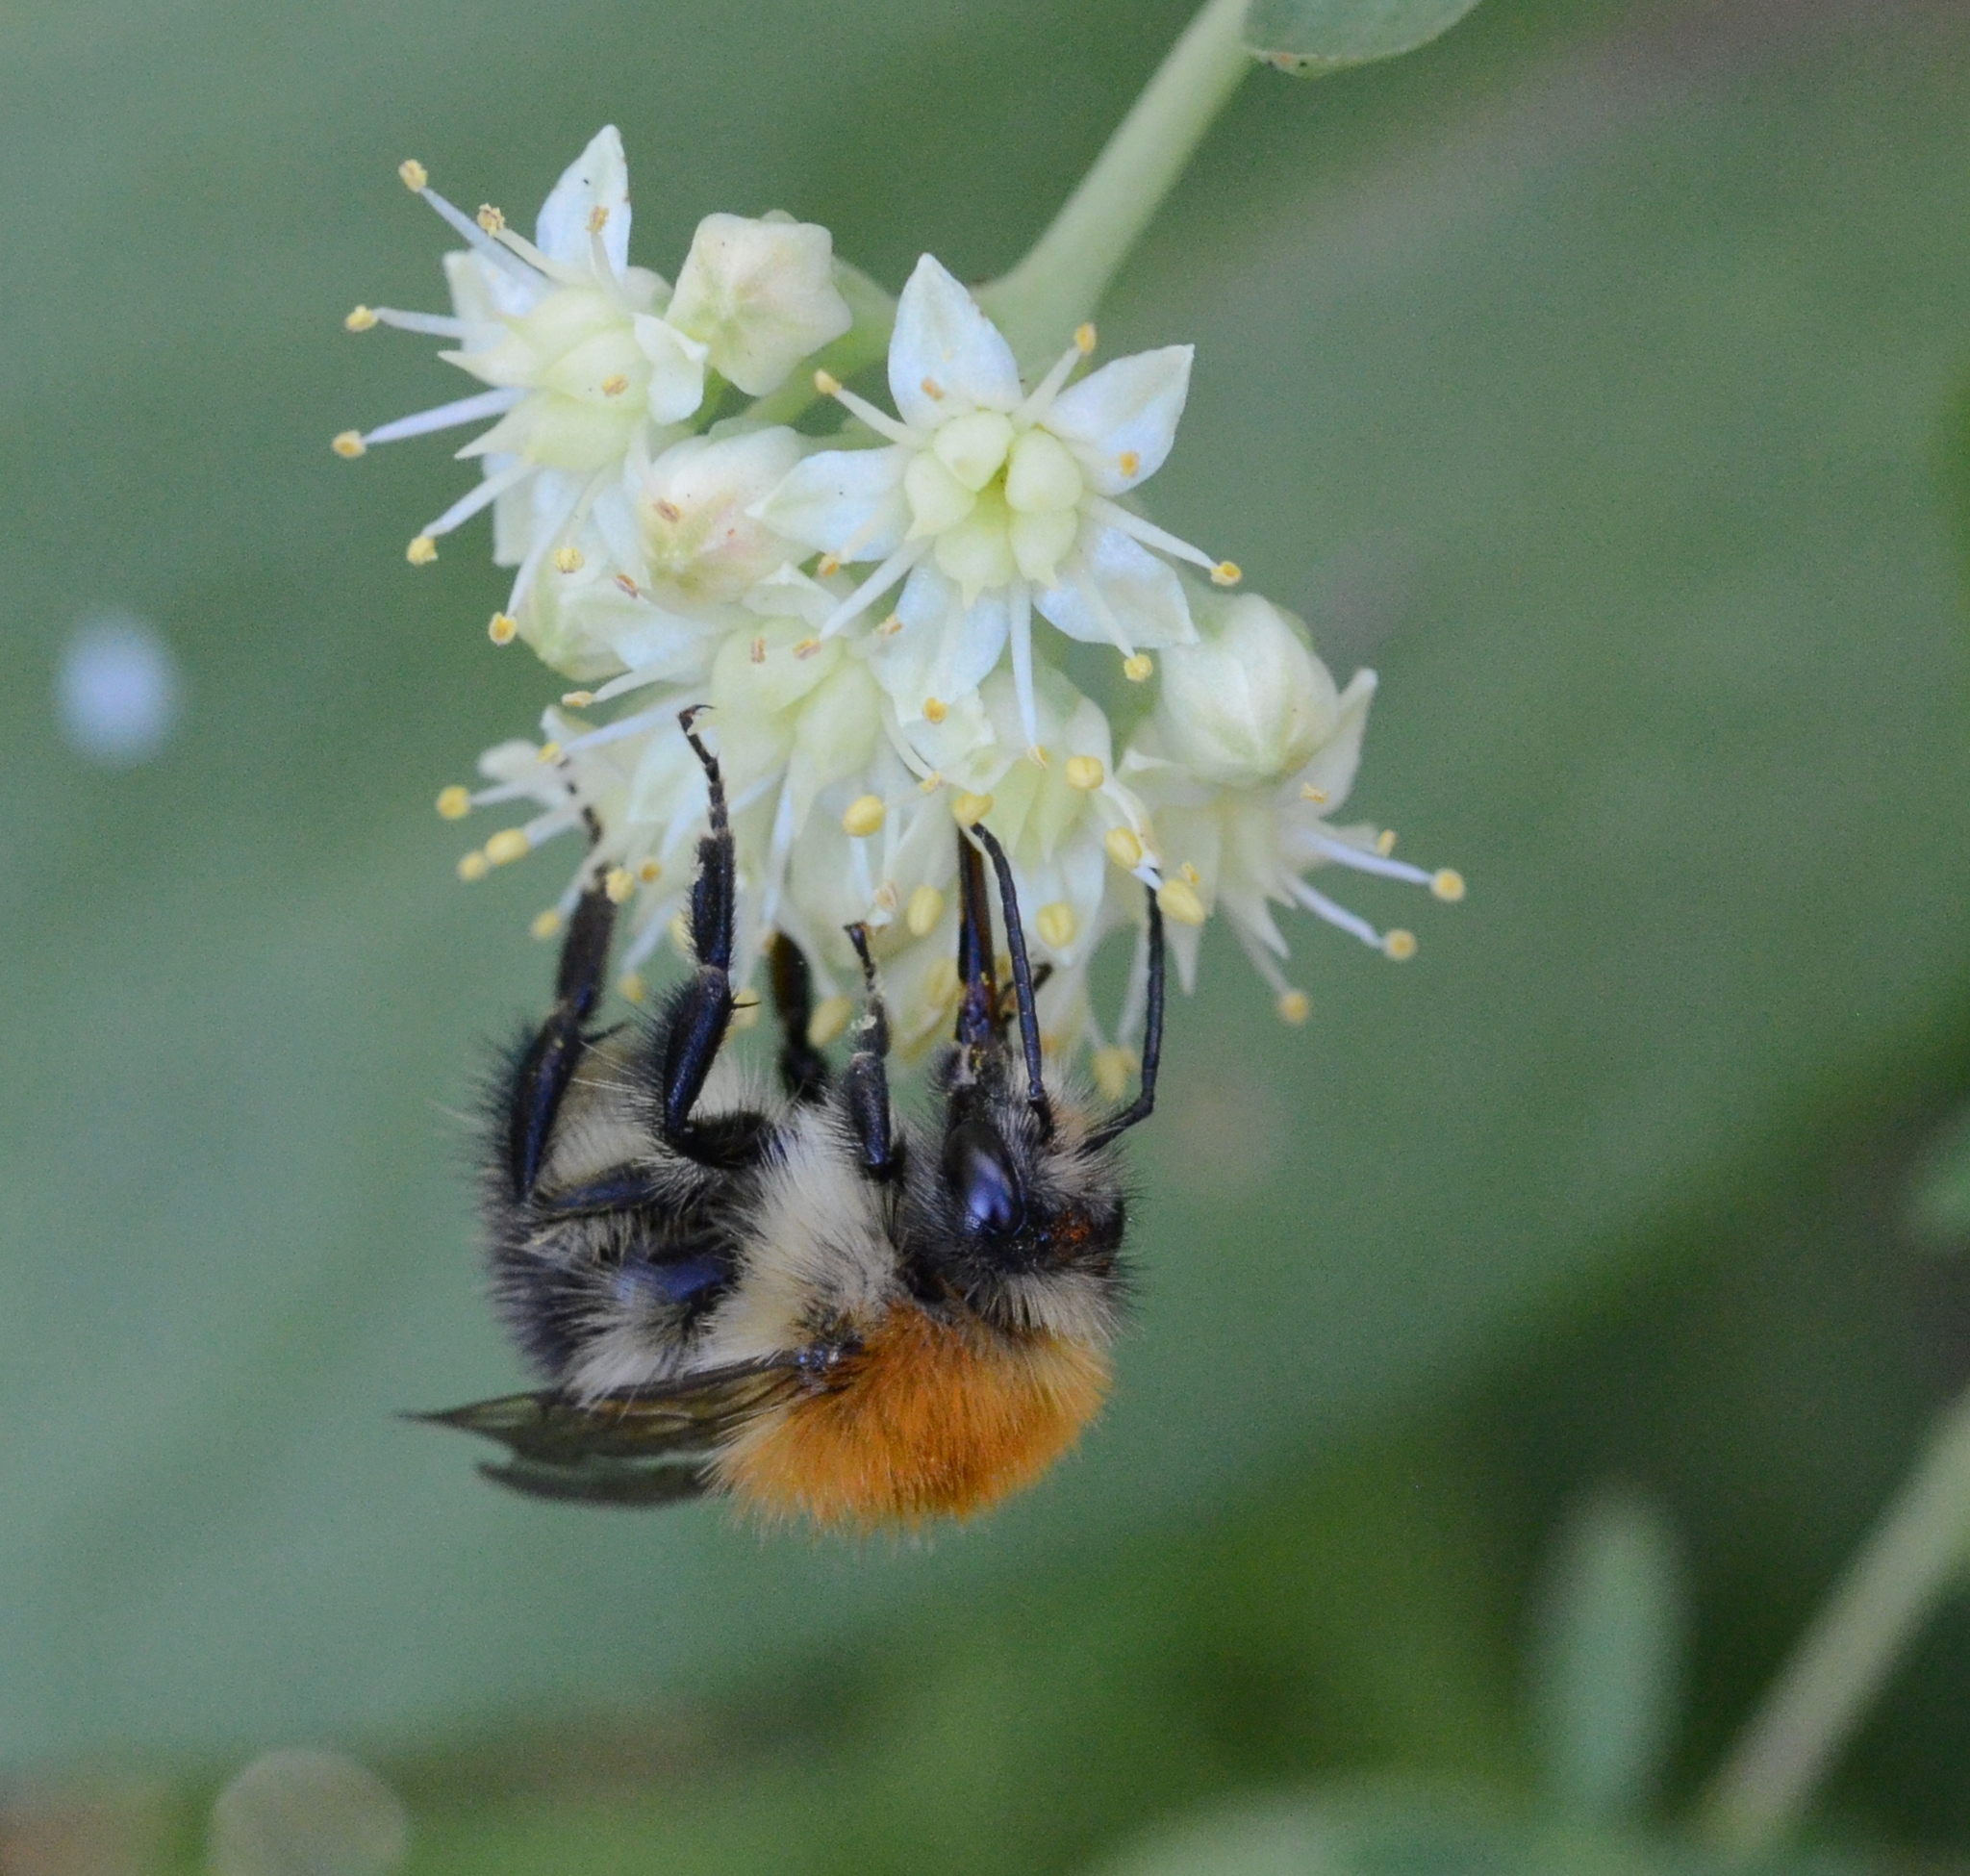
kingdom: Animalia
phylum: Arthropoda
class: Insecta
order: Hymenoptera
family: Apidae
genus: Bombus
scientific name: Bombus pascuorum
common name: Common carder bee
